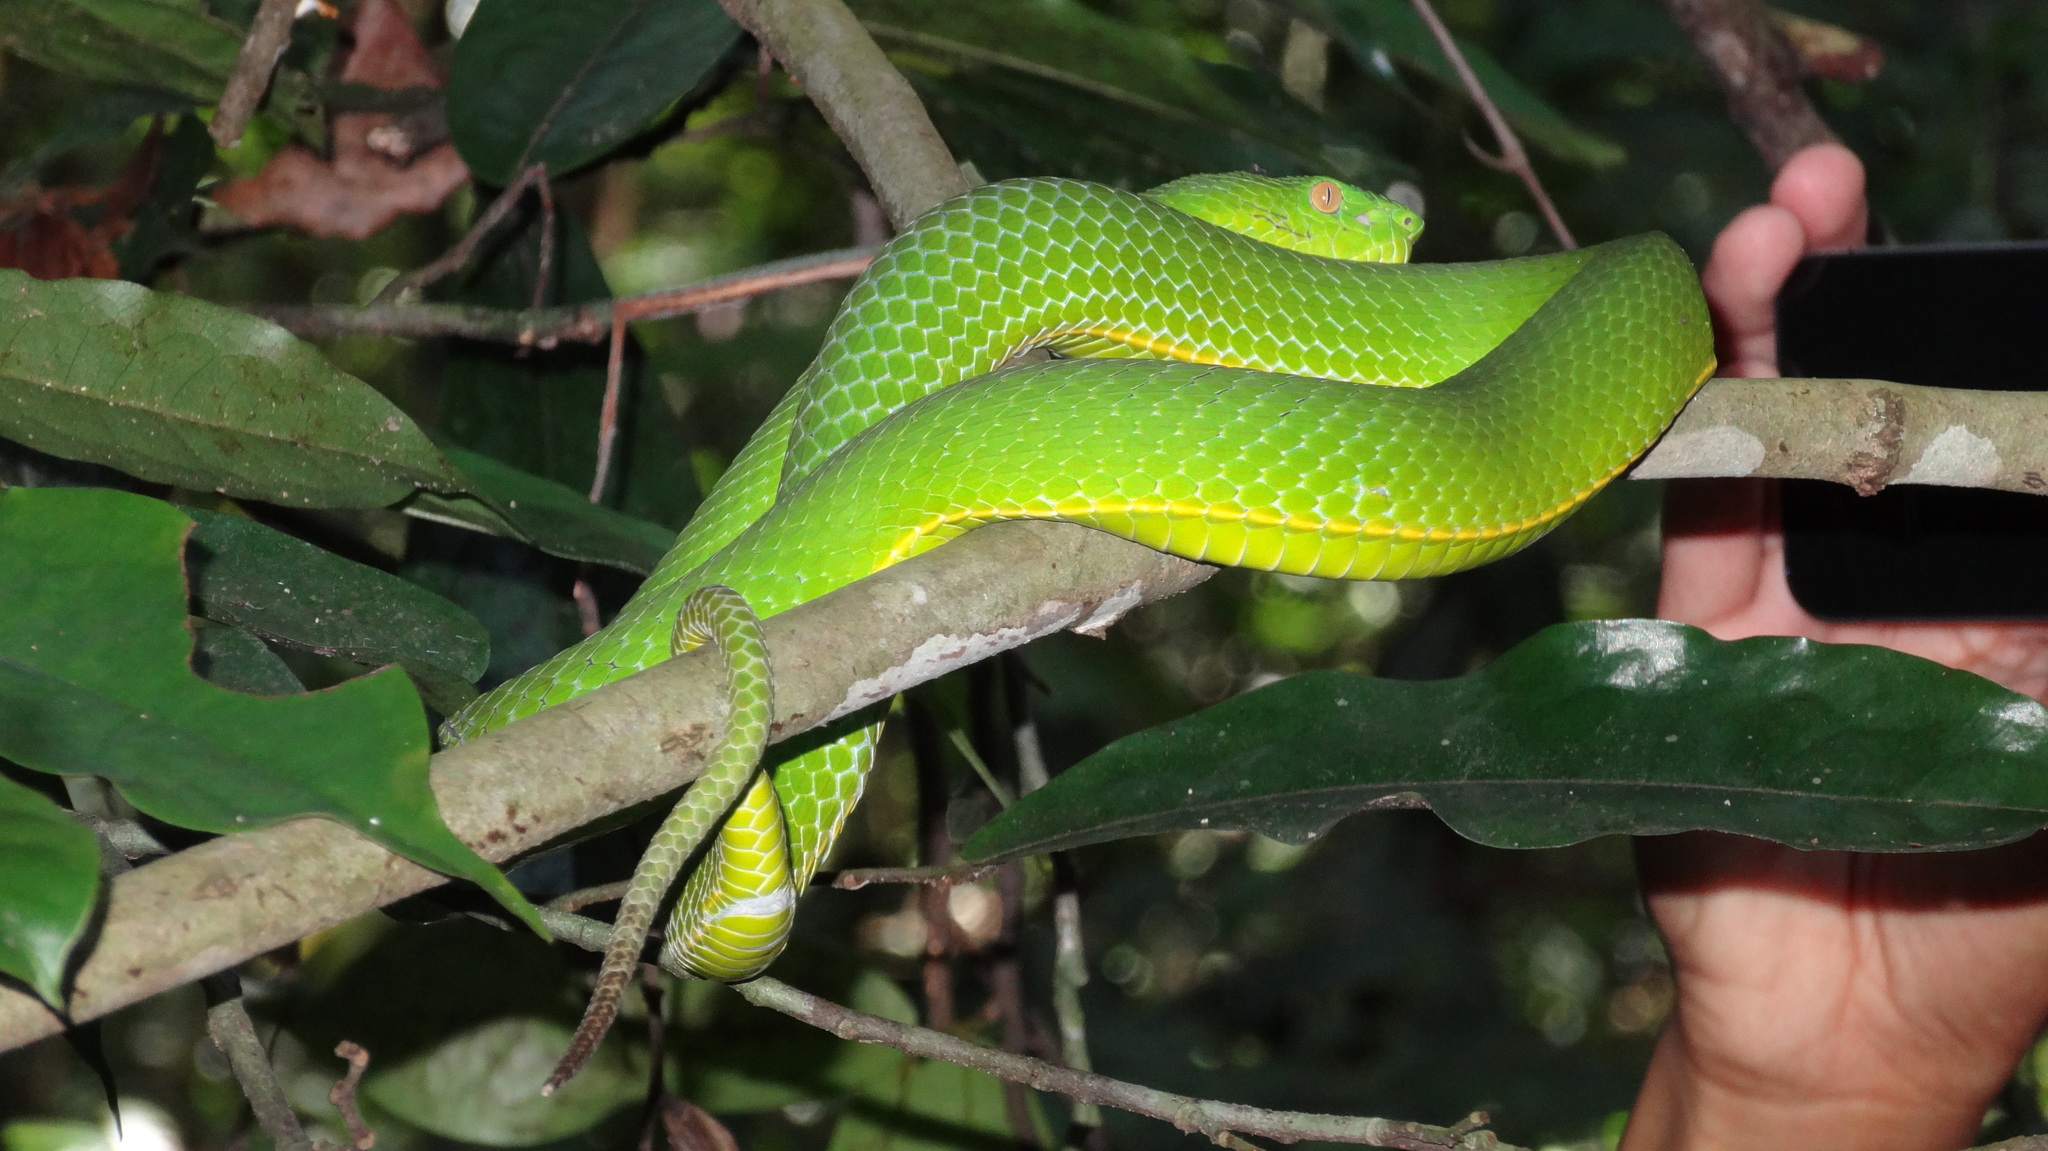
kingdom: Animalia
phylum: Chordata
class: Squamata
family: Viperidae
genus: Trimeresurus
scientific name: Trimeresurus vogeli
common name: Vogel's pit viper
